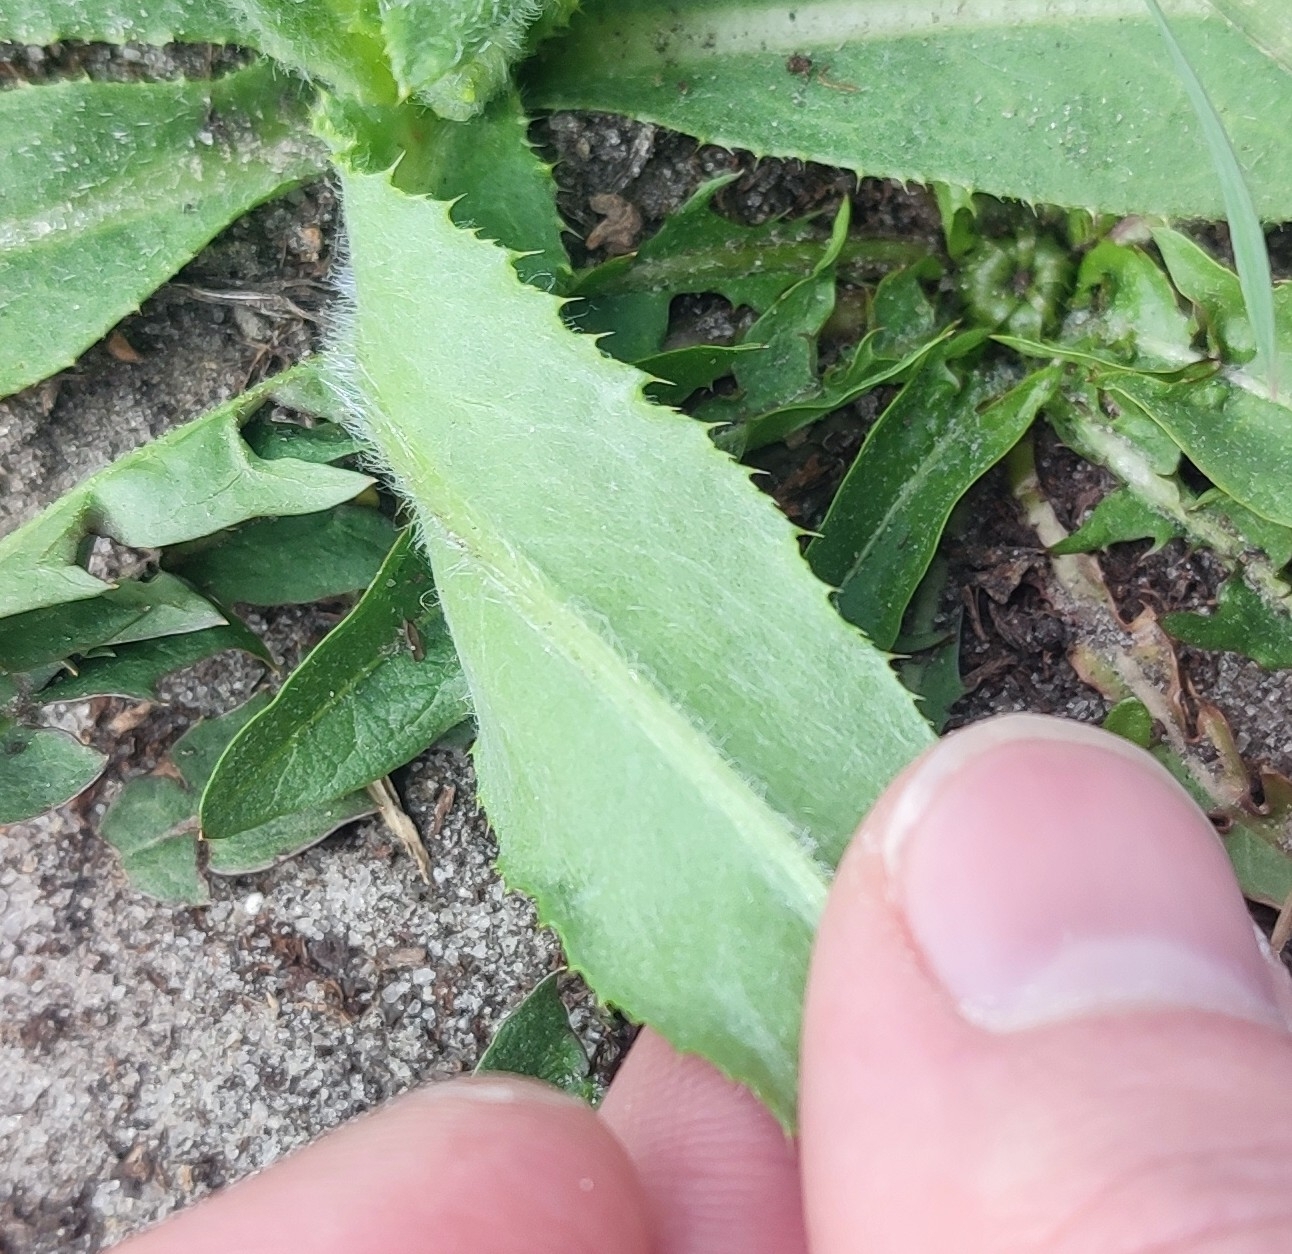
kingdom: Plantae
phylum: Tracheophyta
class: Magnoliopsida
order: Asterales
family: Asteraceae
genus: Cirsium
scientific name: Cirsium arvense
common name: Creeping thistle
